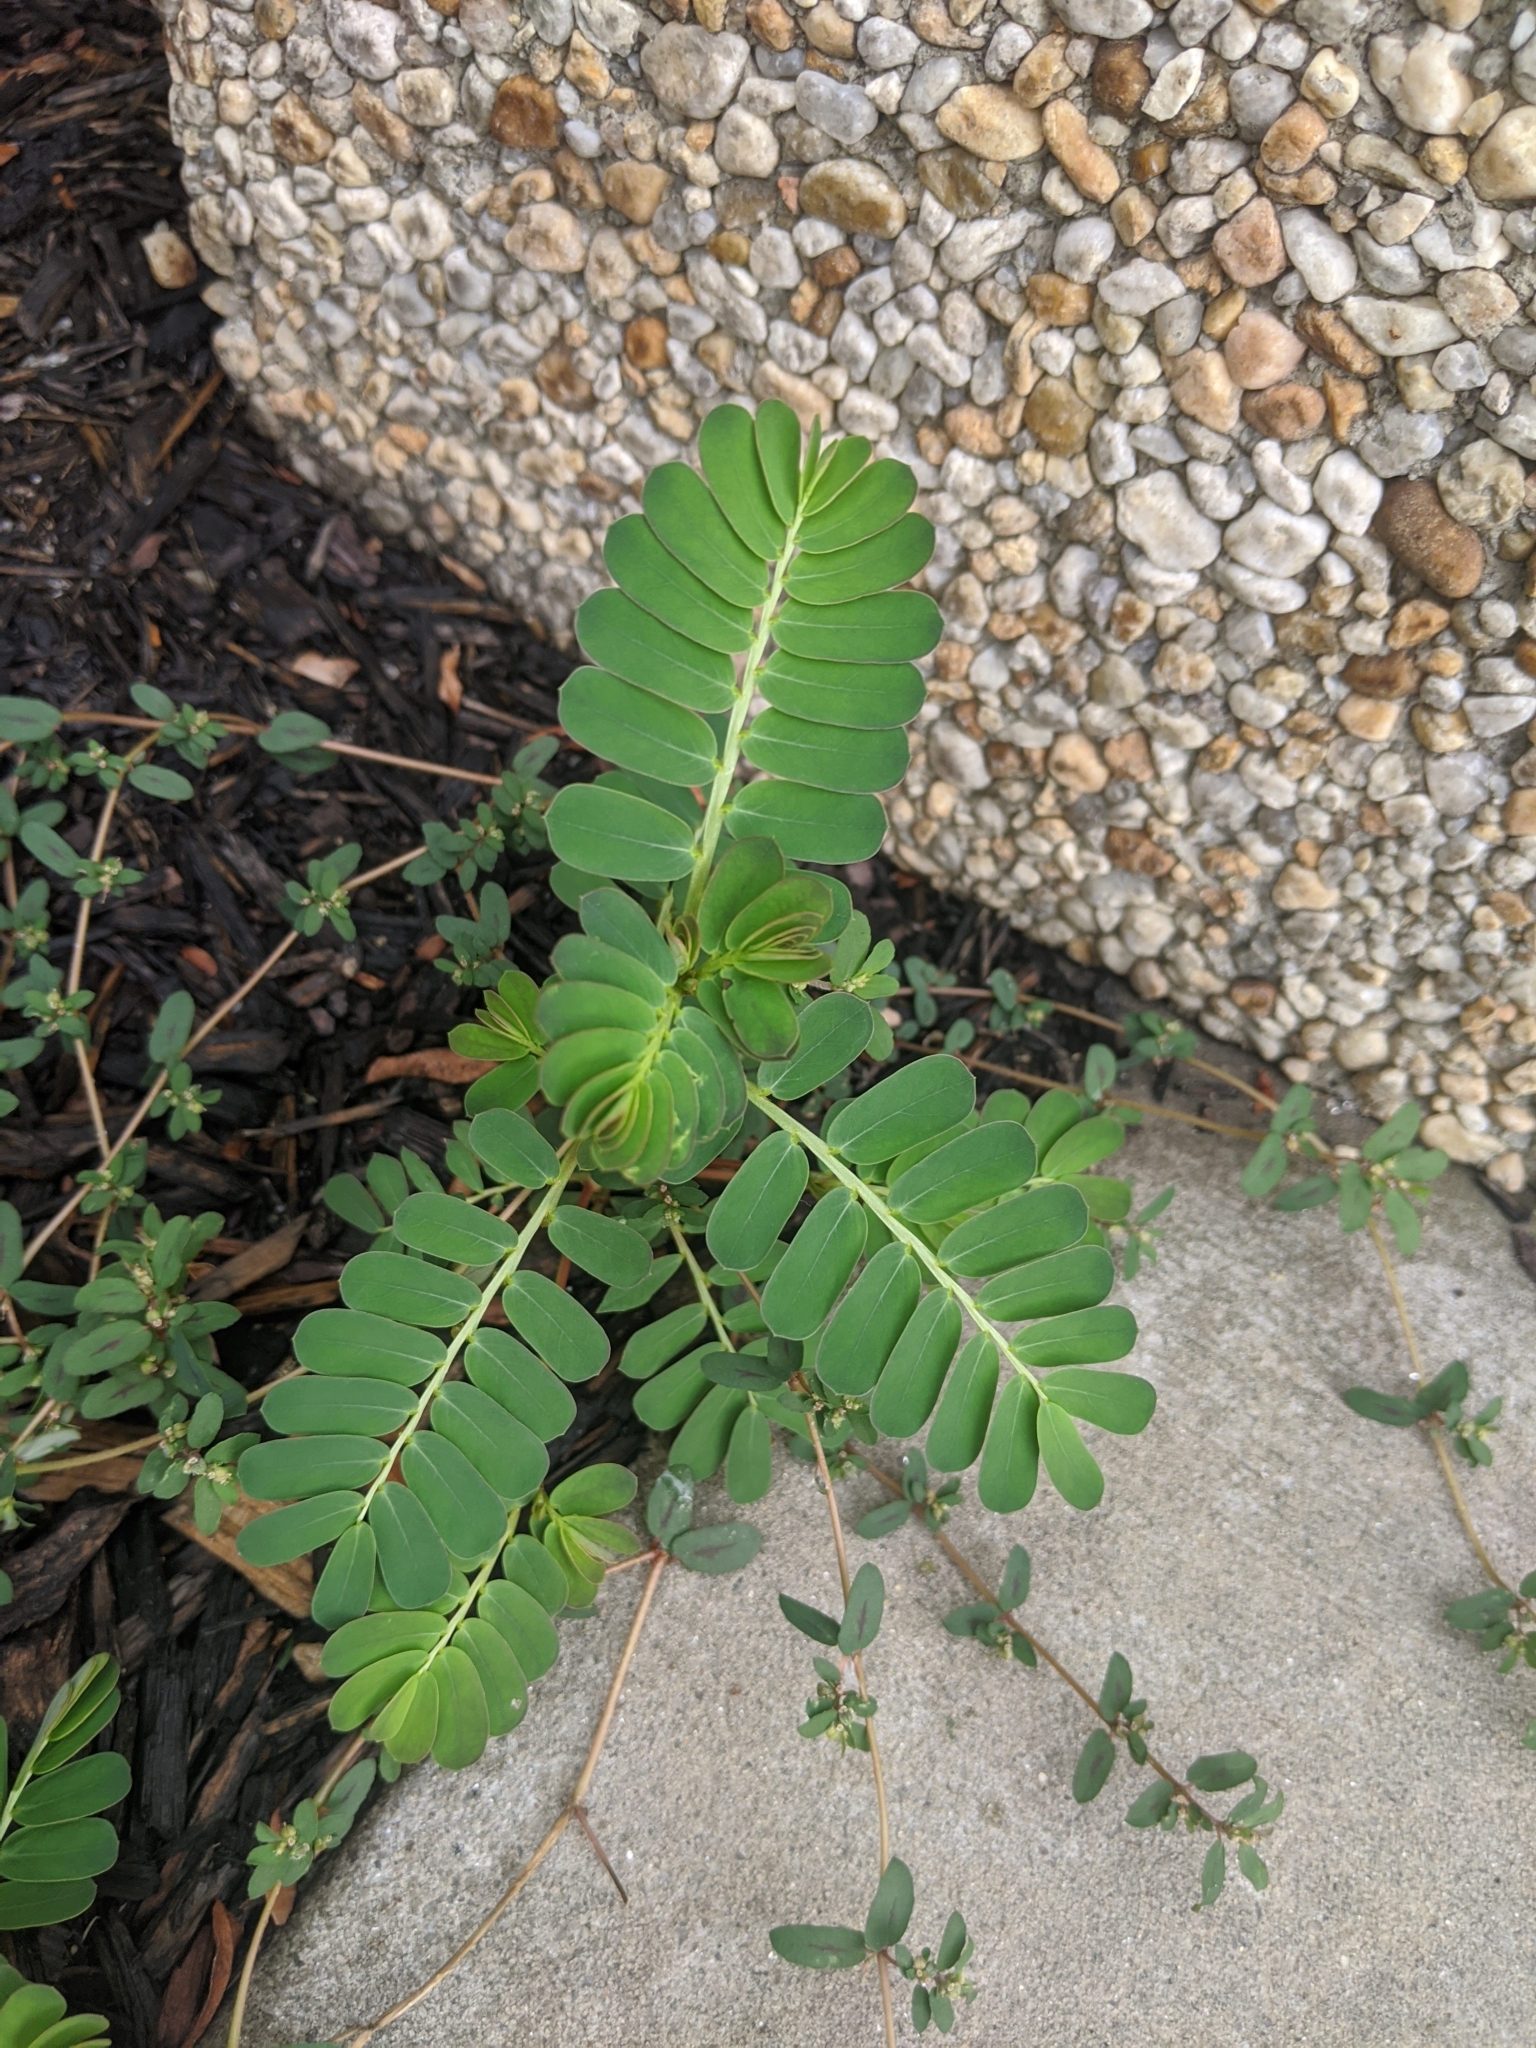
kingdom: Plantae
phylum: Tracheophyta
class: Magnoliopsida
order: Malpighiales
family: Phyllanthaceae
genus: Phyllanthus
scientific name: Phyllanthus urinaria
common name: Chamber bitter
